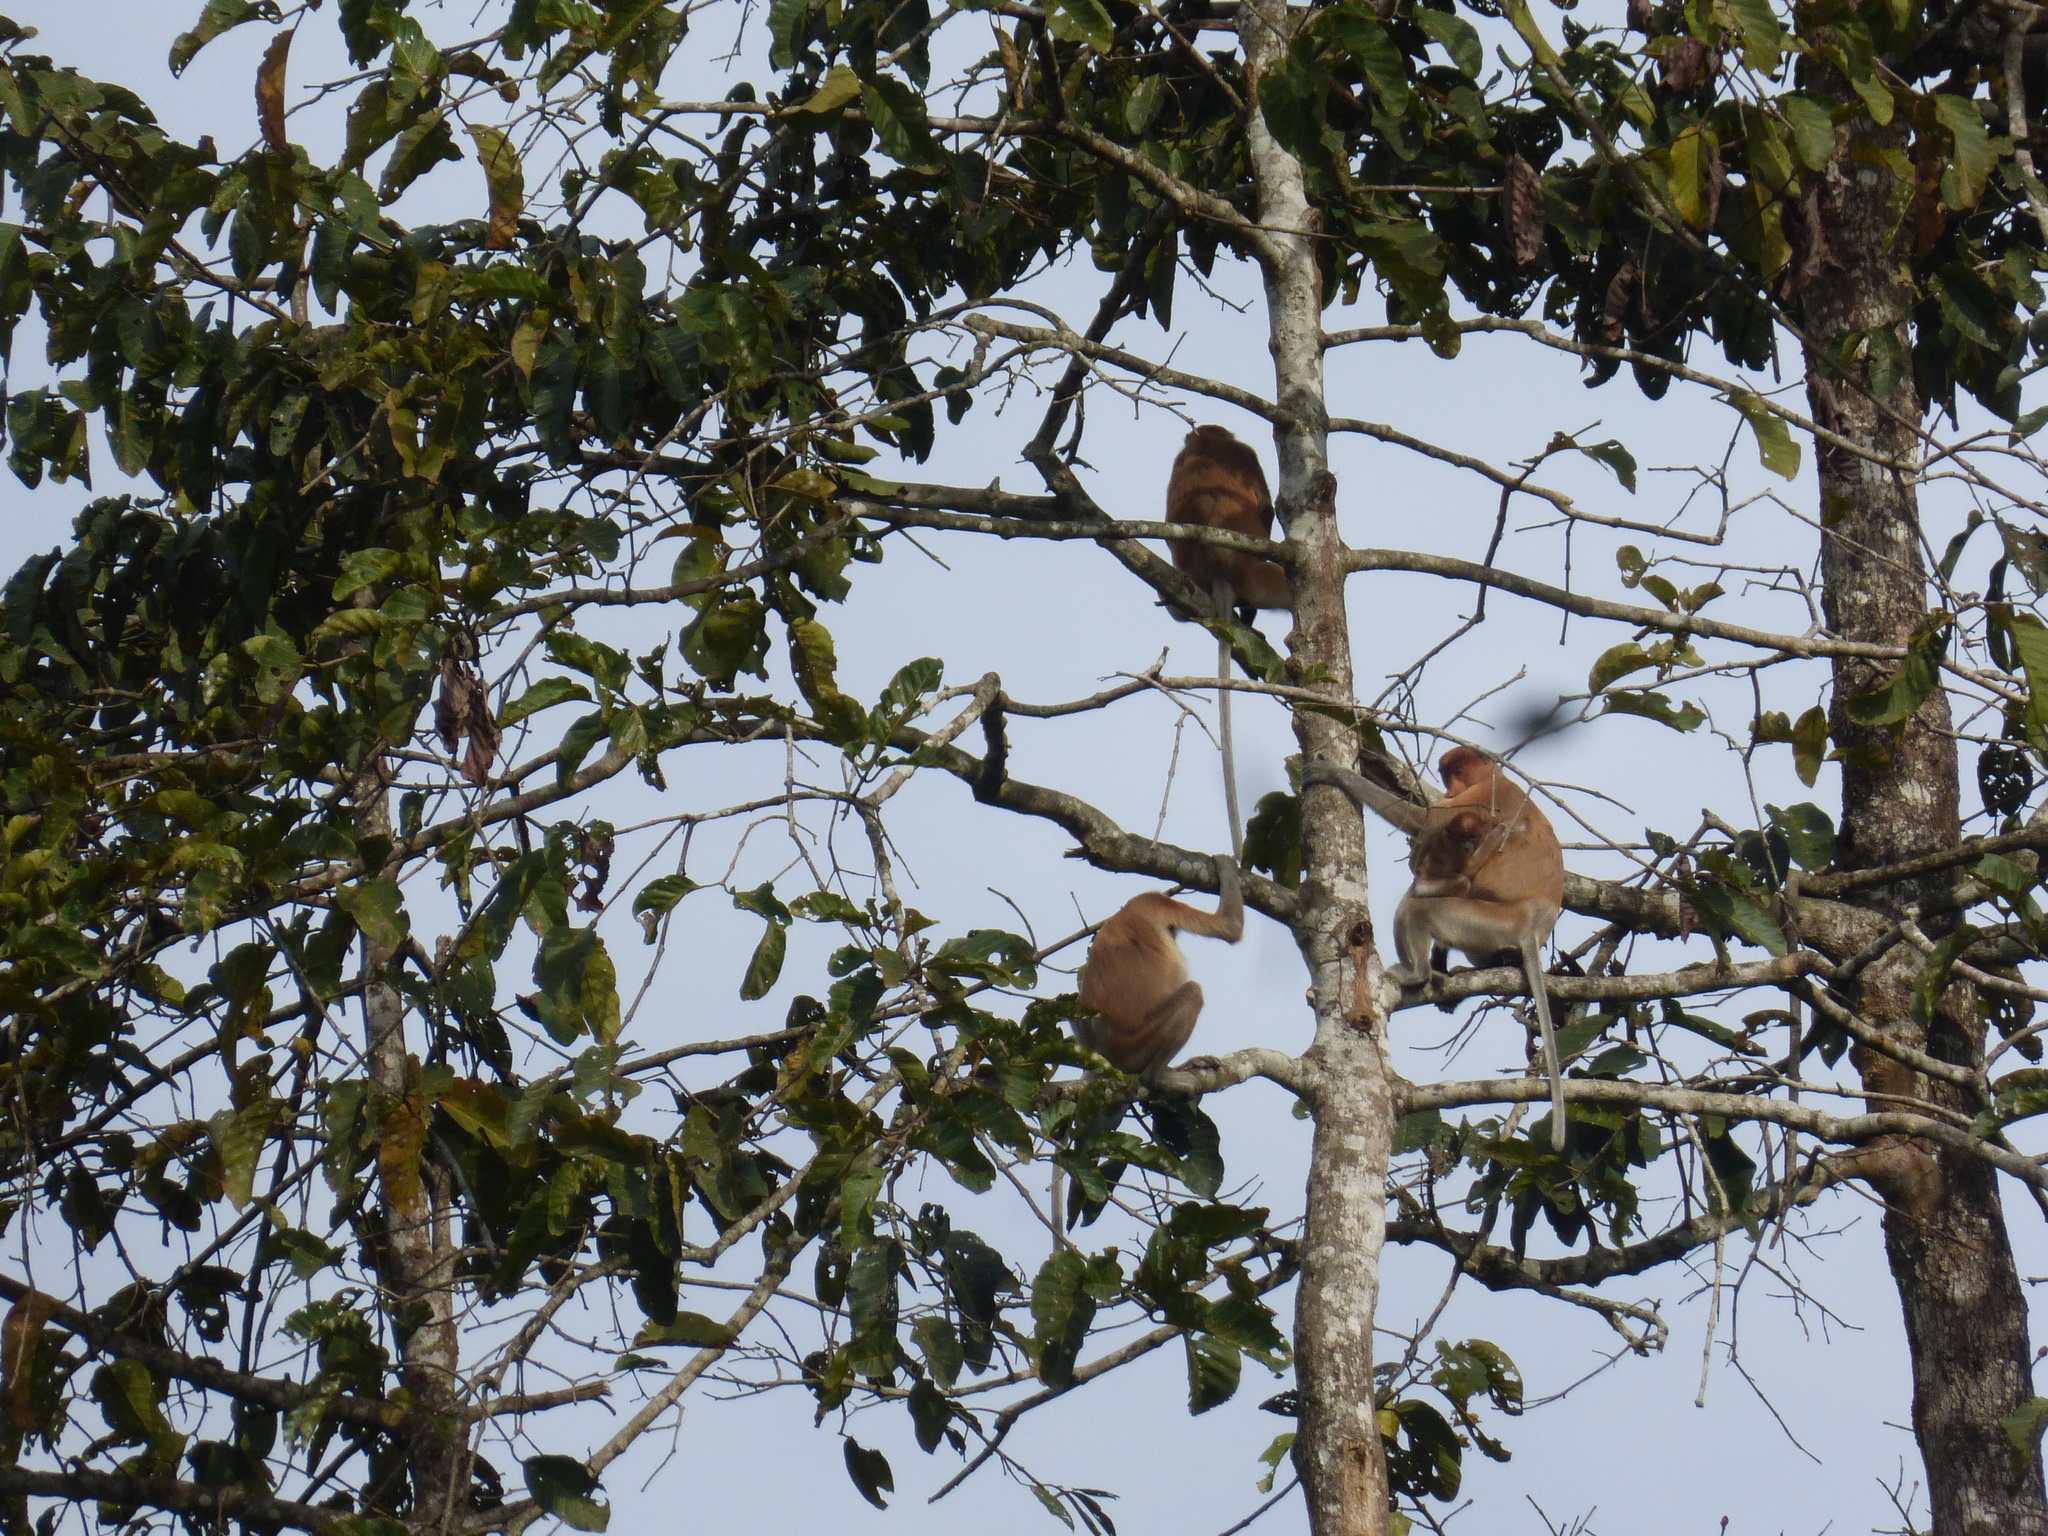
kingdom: Animalia
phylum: Chordata
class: Mammalia
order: Primates
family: Cercopithecidae
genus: Nasalis
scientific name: Nasalis larvatus
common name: Proboscis monkey
